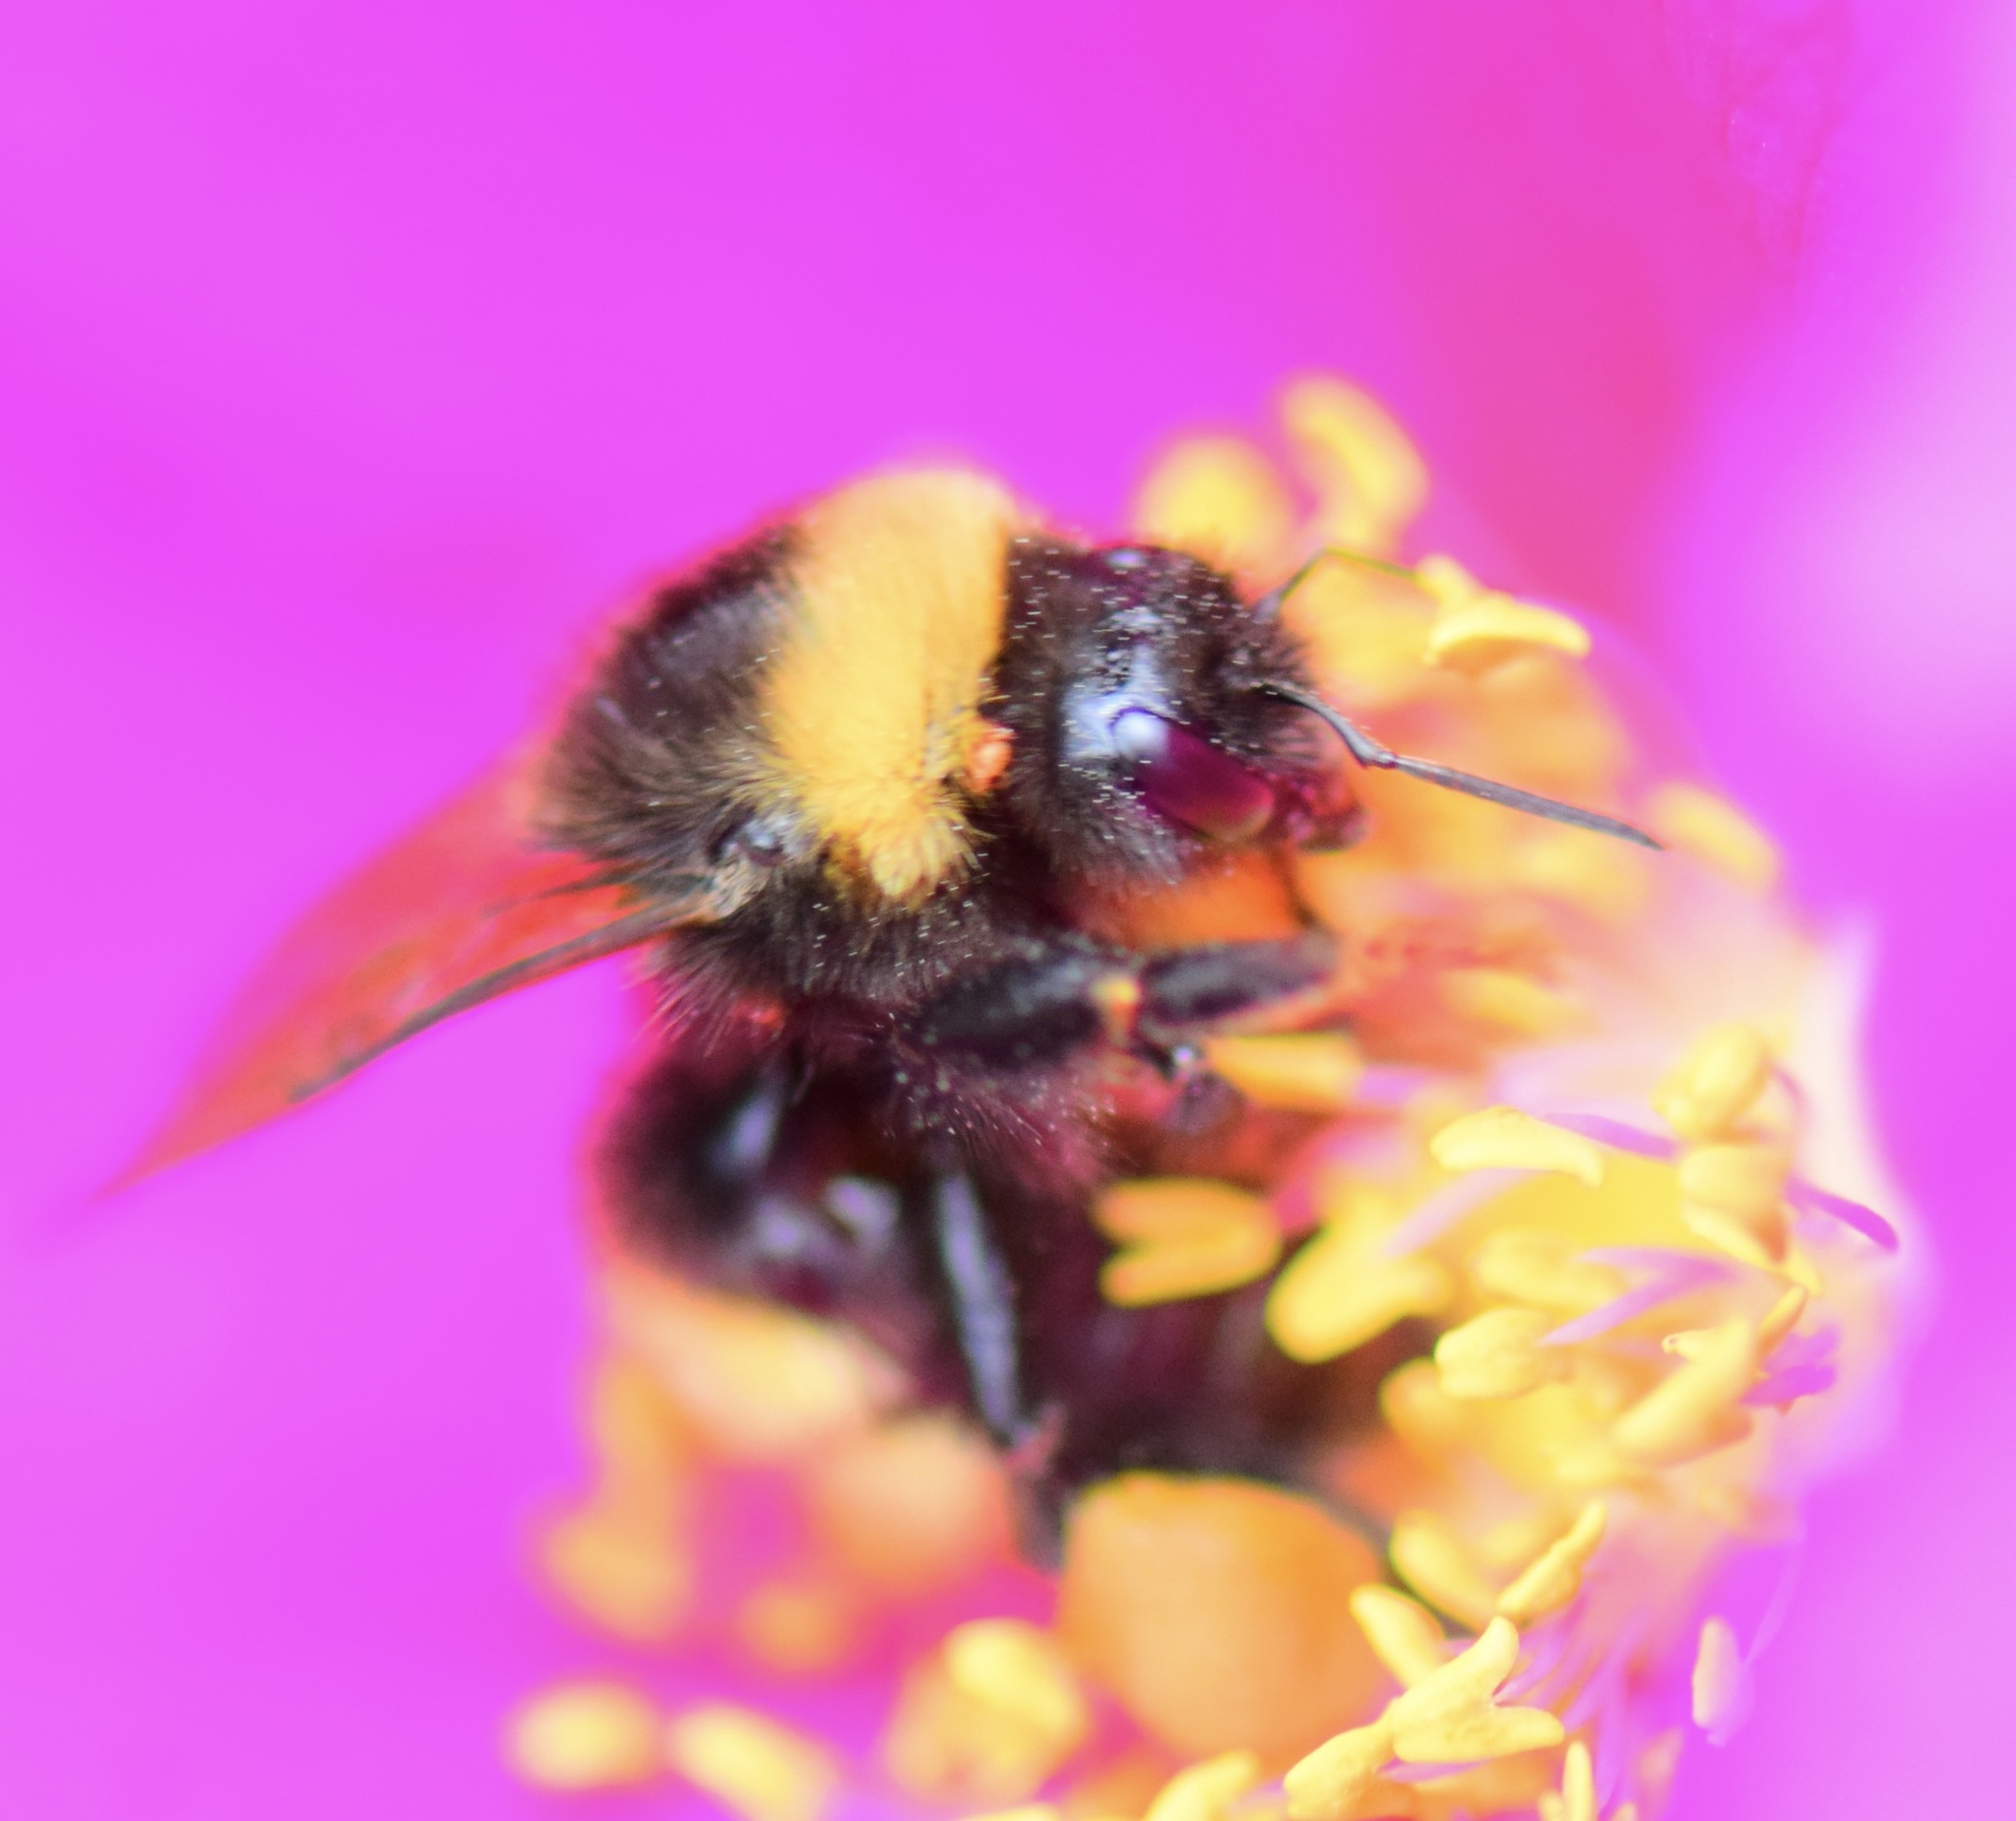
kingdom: Animalia
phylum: Arthropoda
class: Insecta
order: Hymenoptera
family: Apidae
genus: Bombus
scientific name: Bombus terricola
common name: Yellow-banded bumble bee
